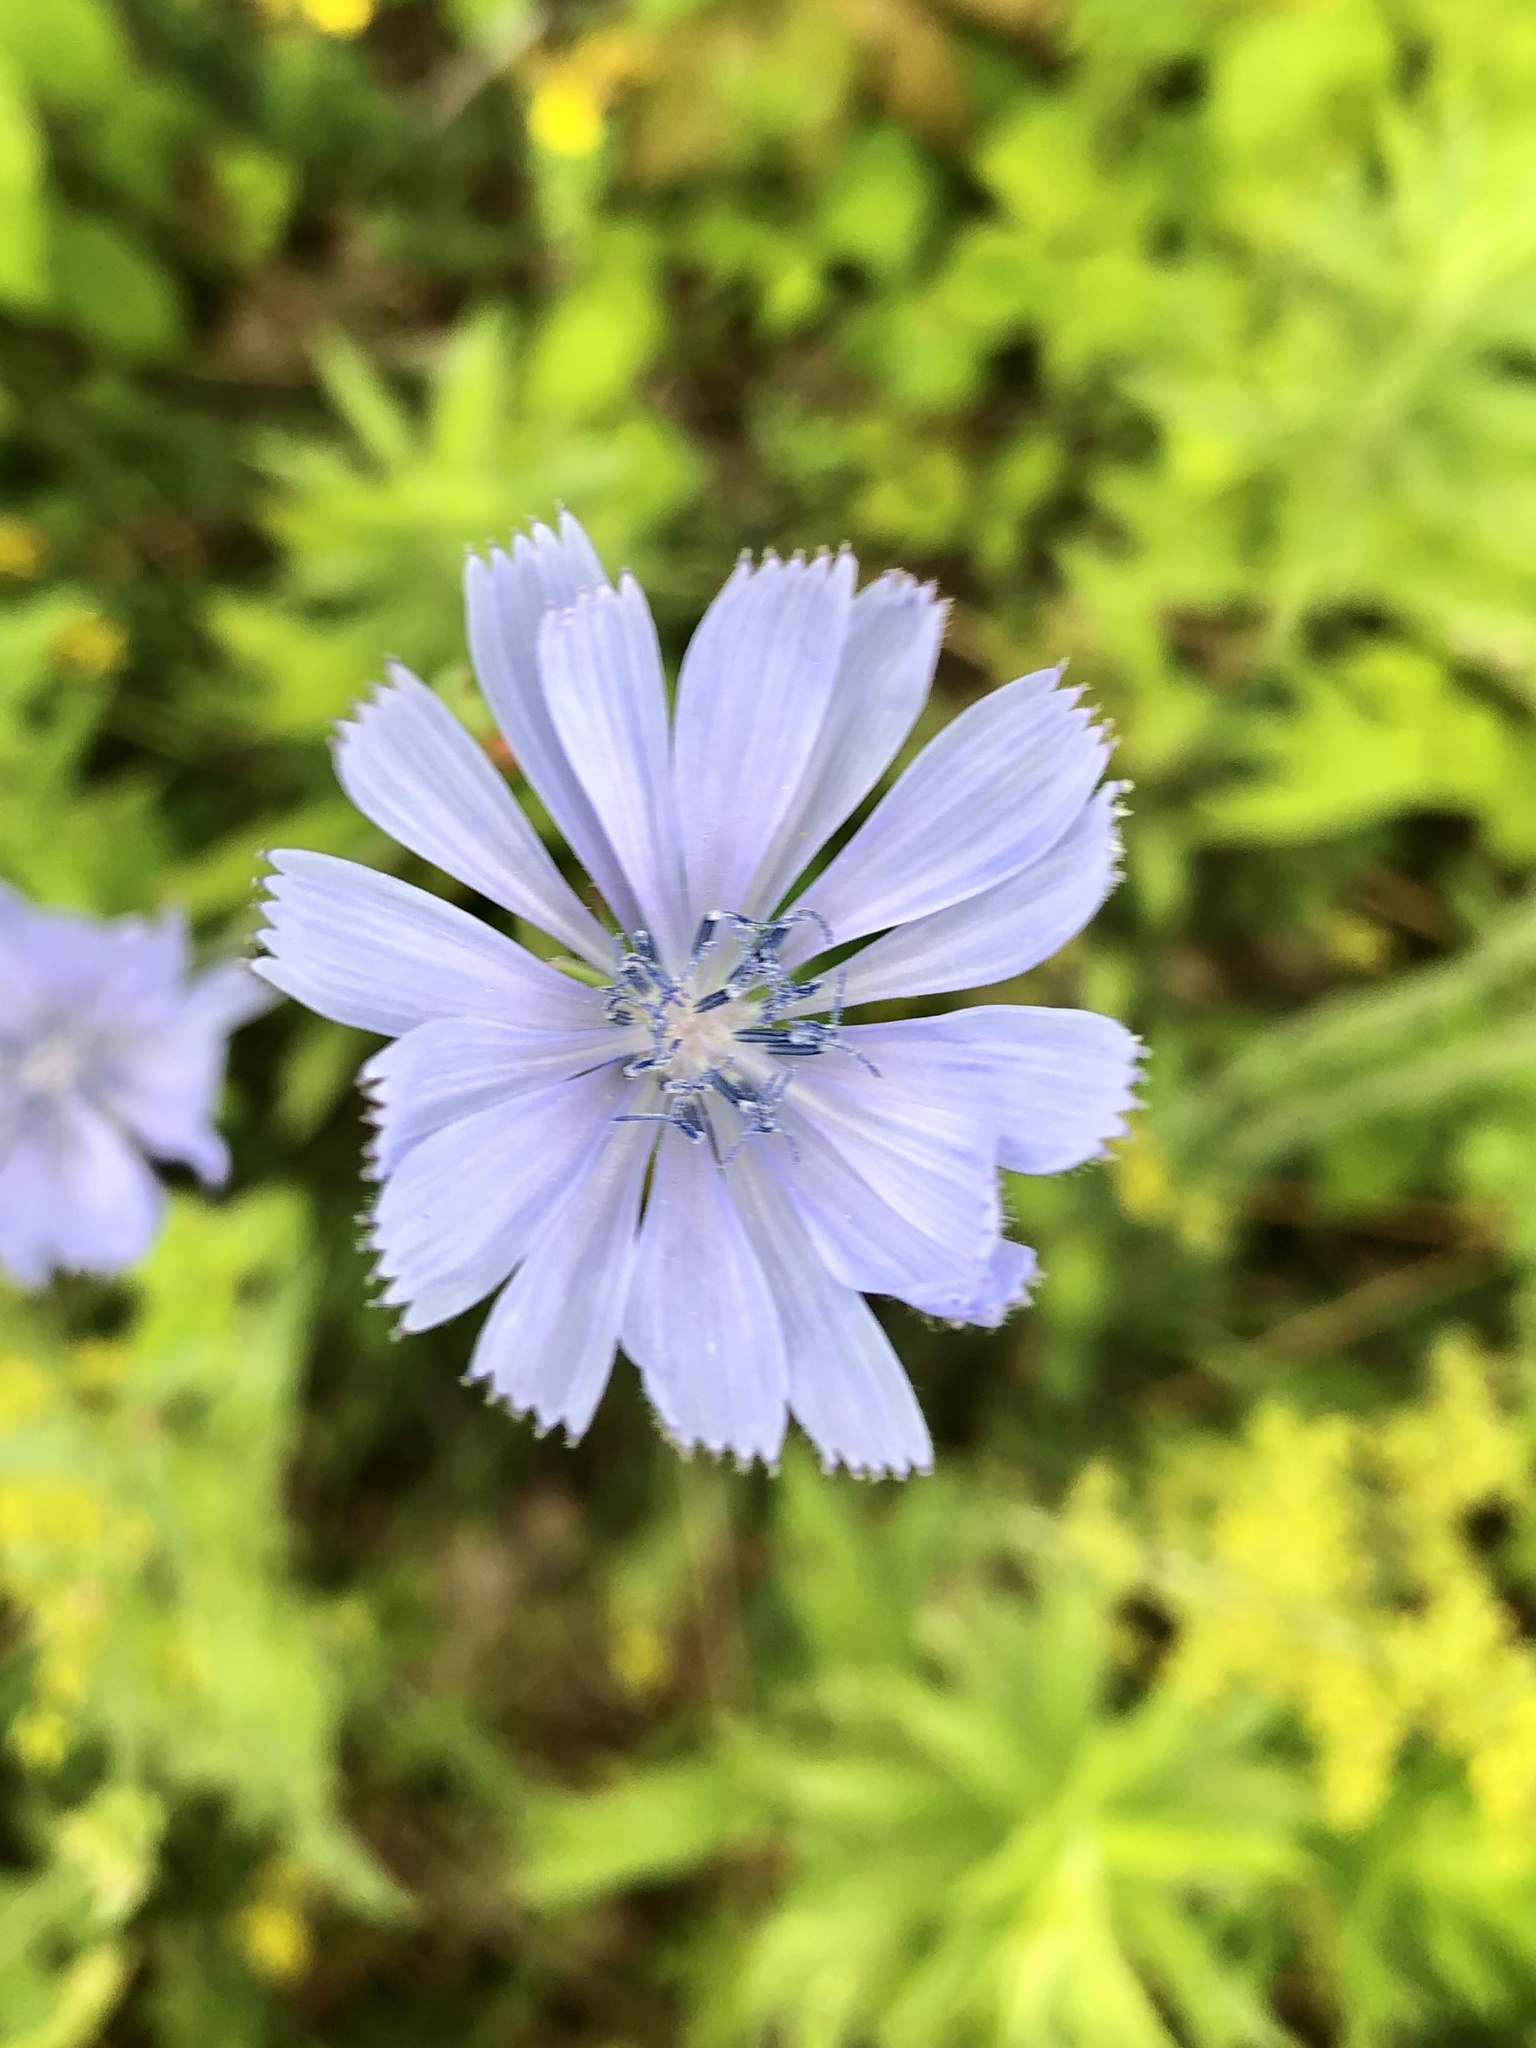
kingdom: Plantae
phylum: Tracheophyta
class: Magnoliopsida
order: Asterales
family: Asteraceae
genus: Cichorium
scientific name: Cichorium intybus
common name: Chicory
